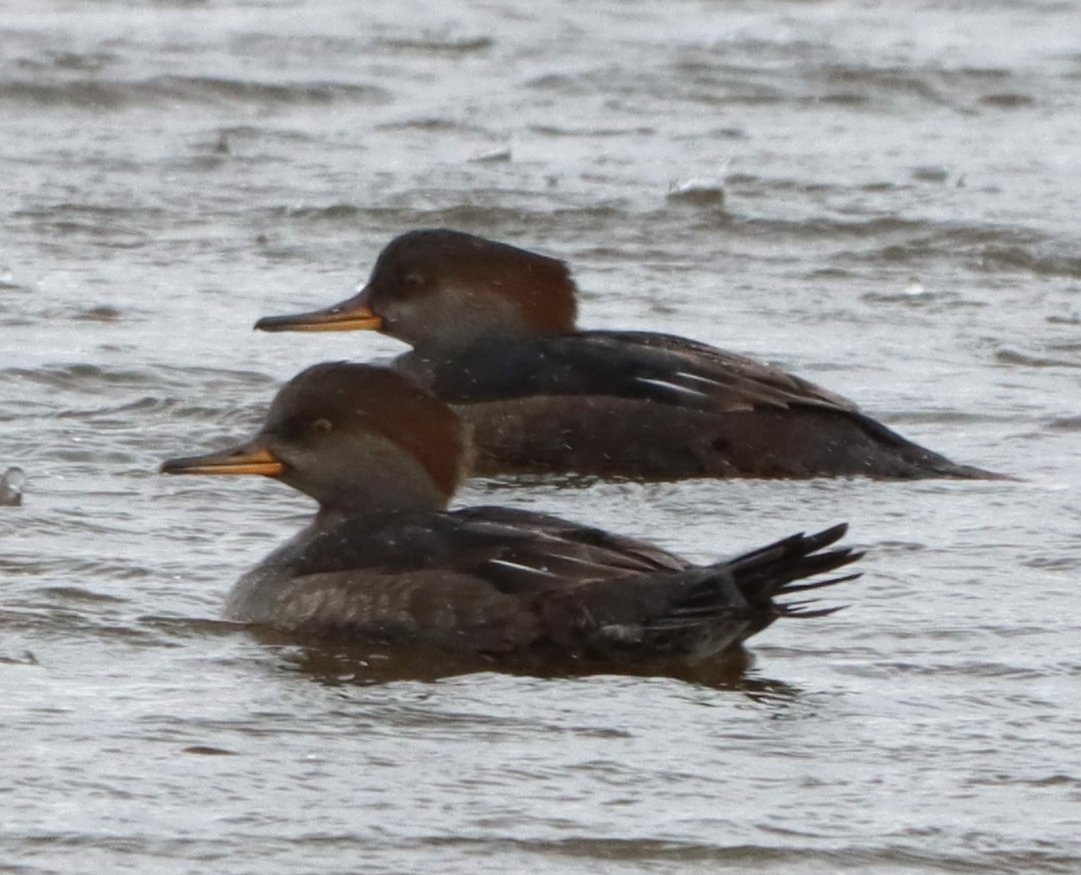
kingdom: Animalia
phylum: Chordata
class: Aves
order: Anseriformes
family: Anatidae
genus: Lophodytes
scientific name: Lophodytes cucullatus
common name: Hooded merganser
